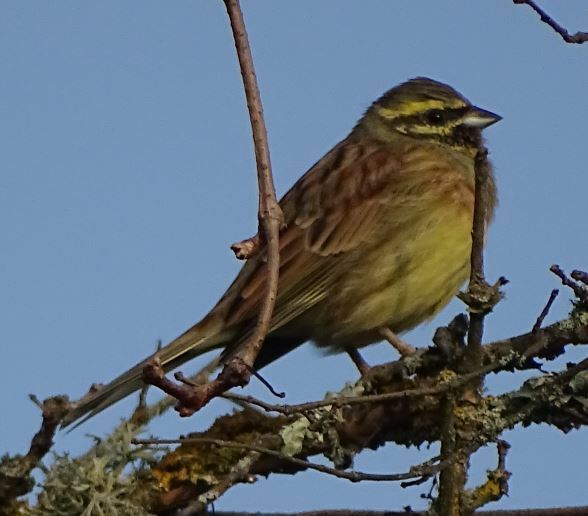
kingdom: Animalia
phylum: Chordata
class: Aves
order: Passeriformes
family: Emberizidae
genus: Emberiza
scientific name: Emberiza cirlus
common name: Cirl bunting
